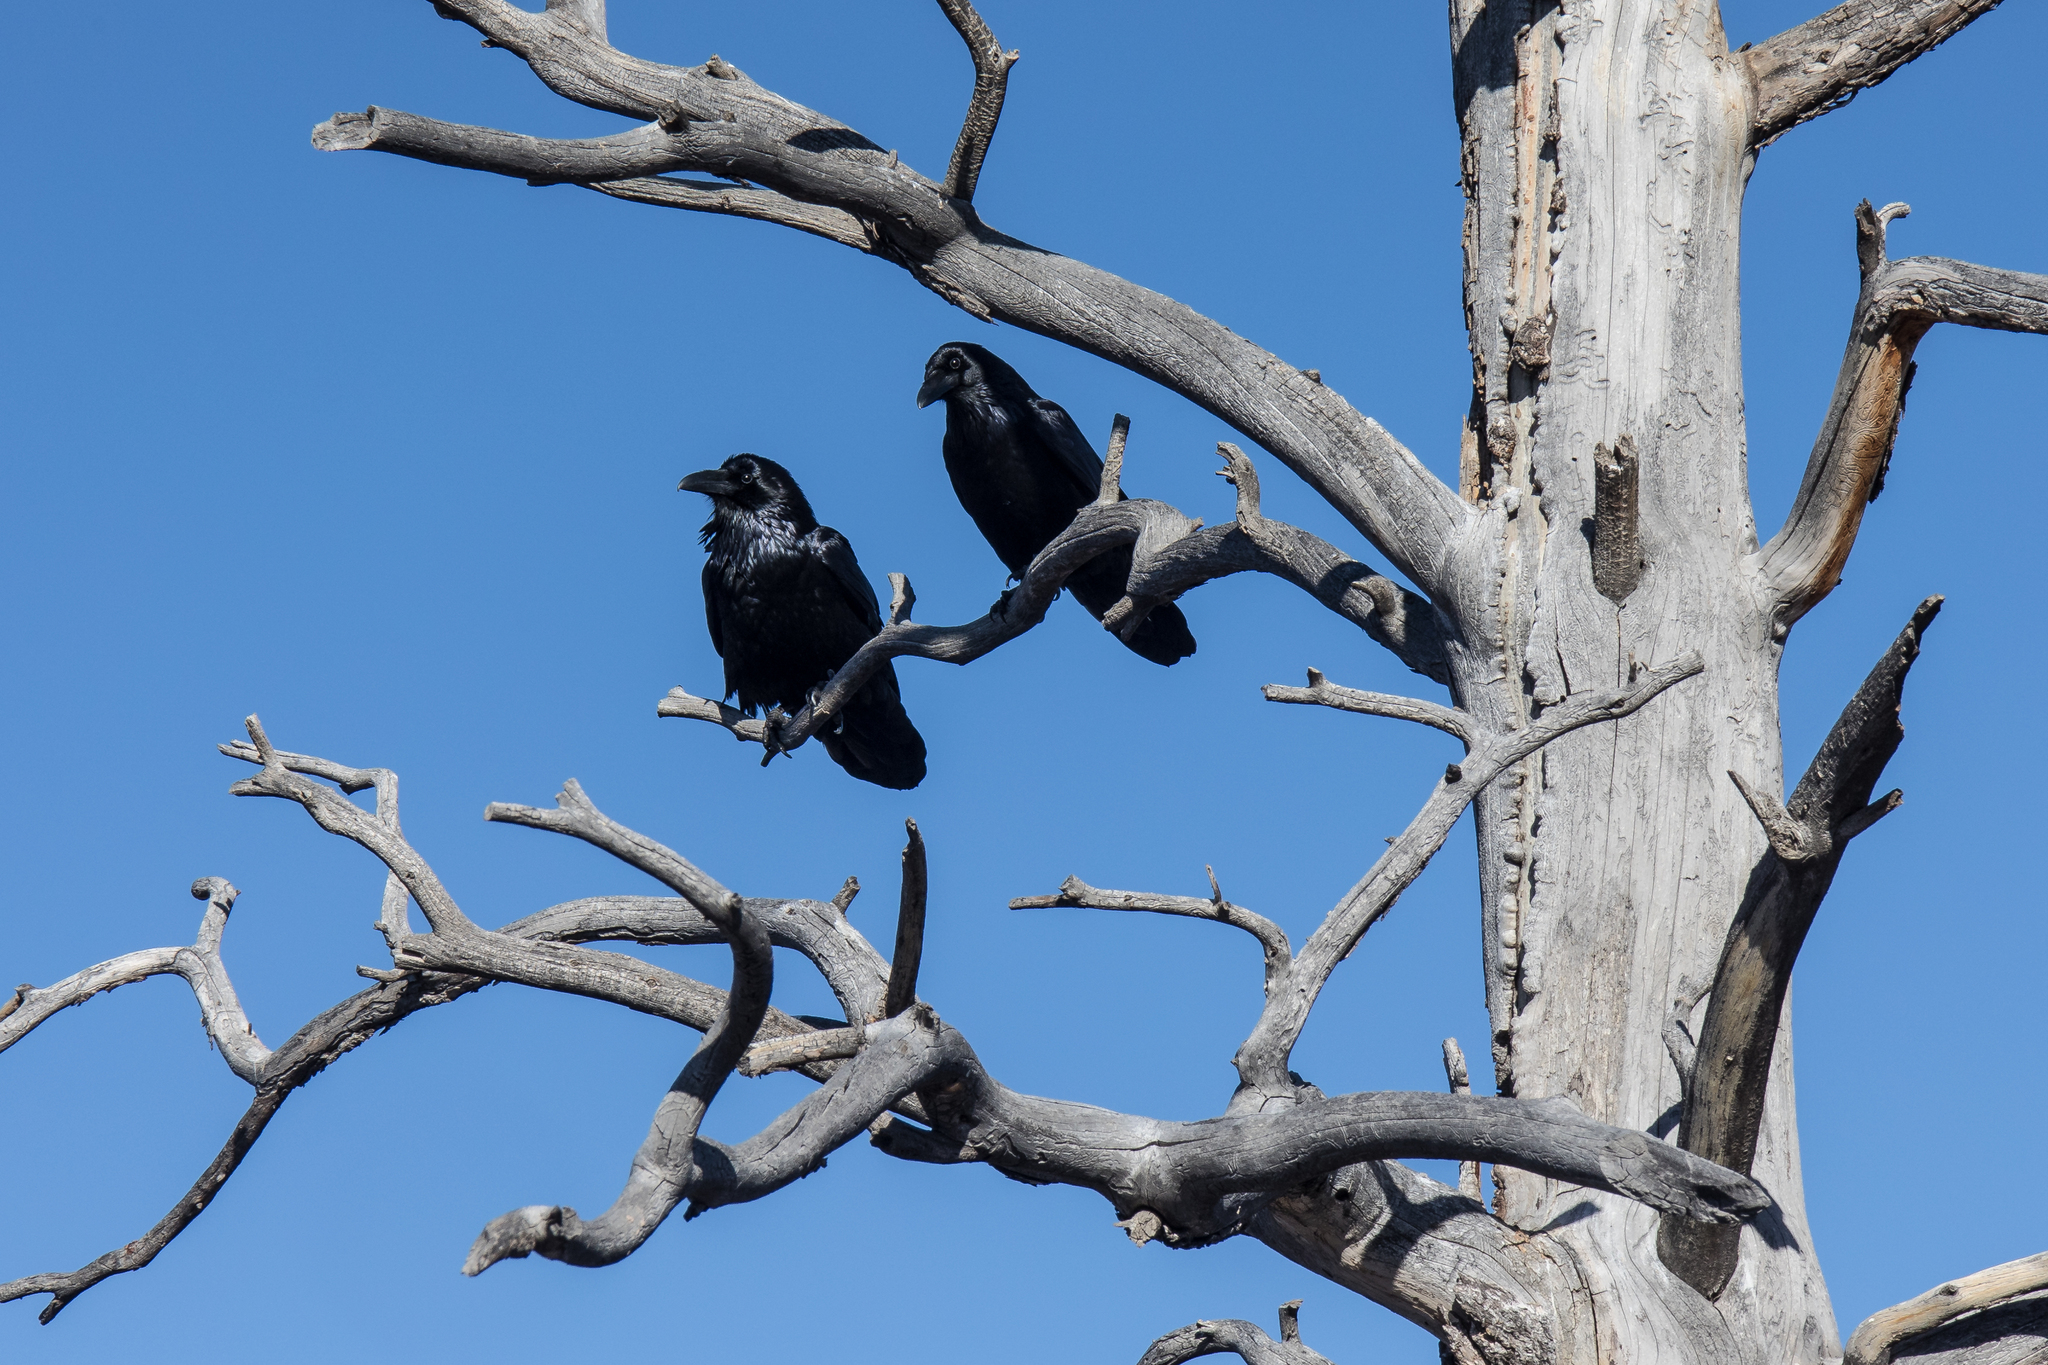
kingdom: Animalia
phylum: Chordata
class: Aves
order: Passeriformes
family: Corvidae
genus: Corvus
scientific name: Corvus corax
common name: Common raven
